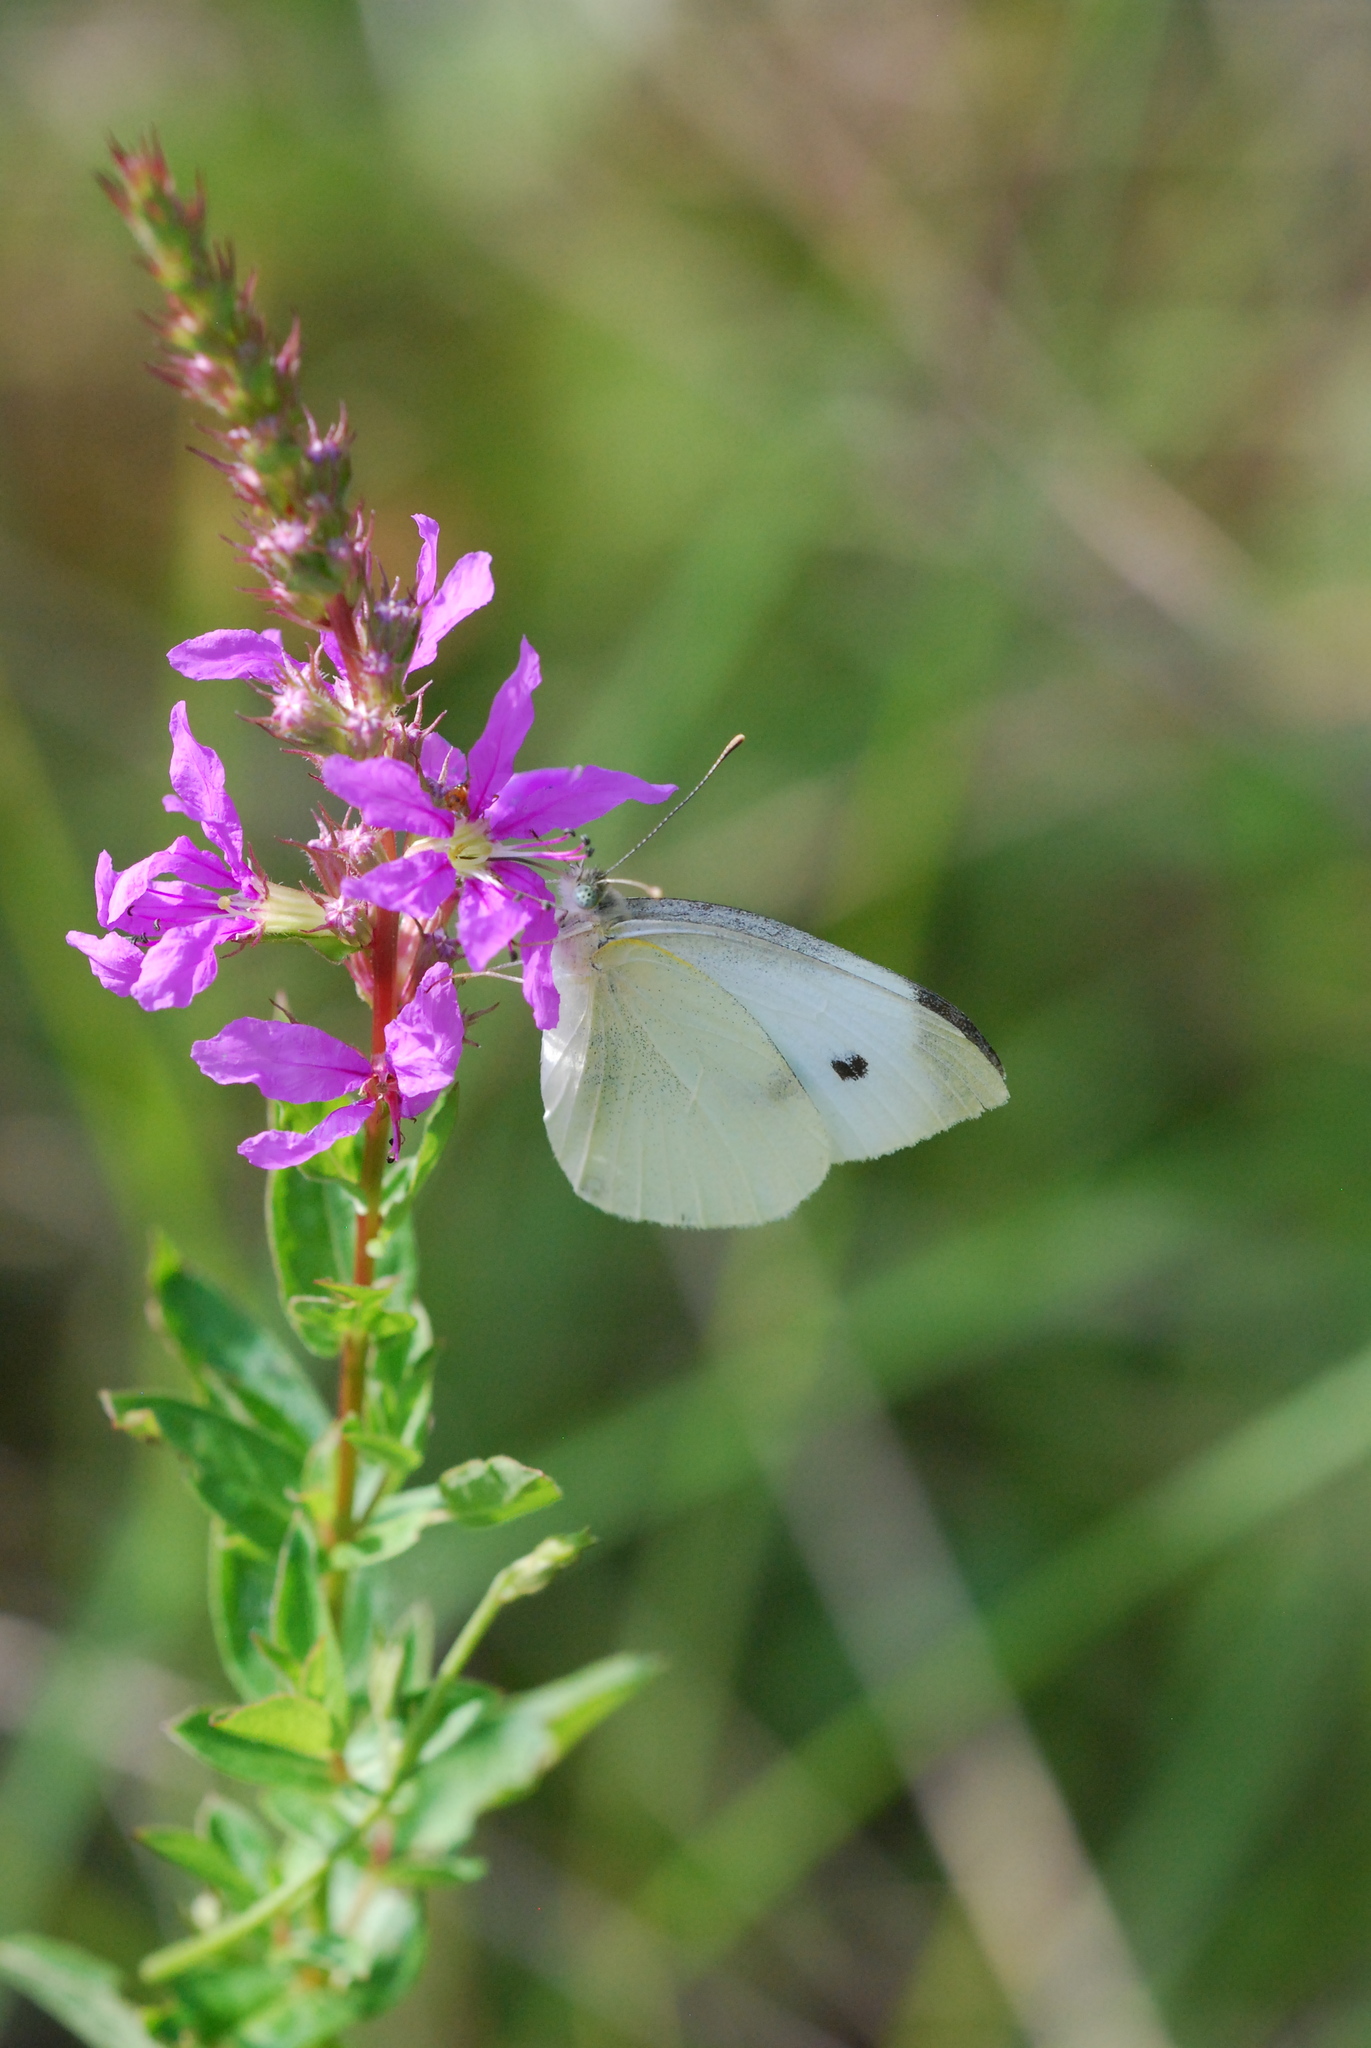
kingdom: Animalia
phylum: Arthropoda
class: Insecta
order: Lepidoptera
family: Pieridae
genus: Pieris
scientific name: Pieris rapae
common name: Small white
